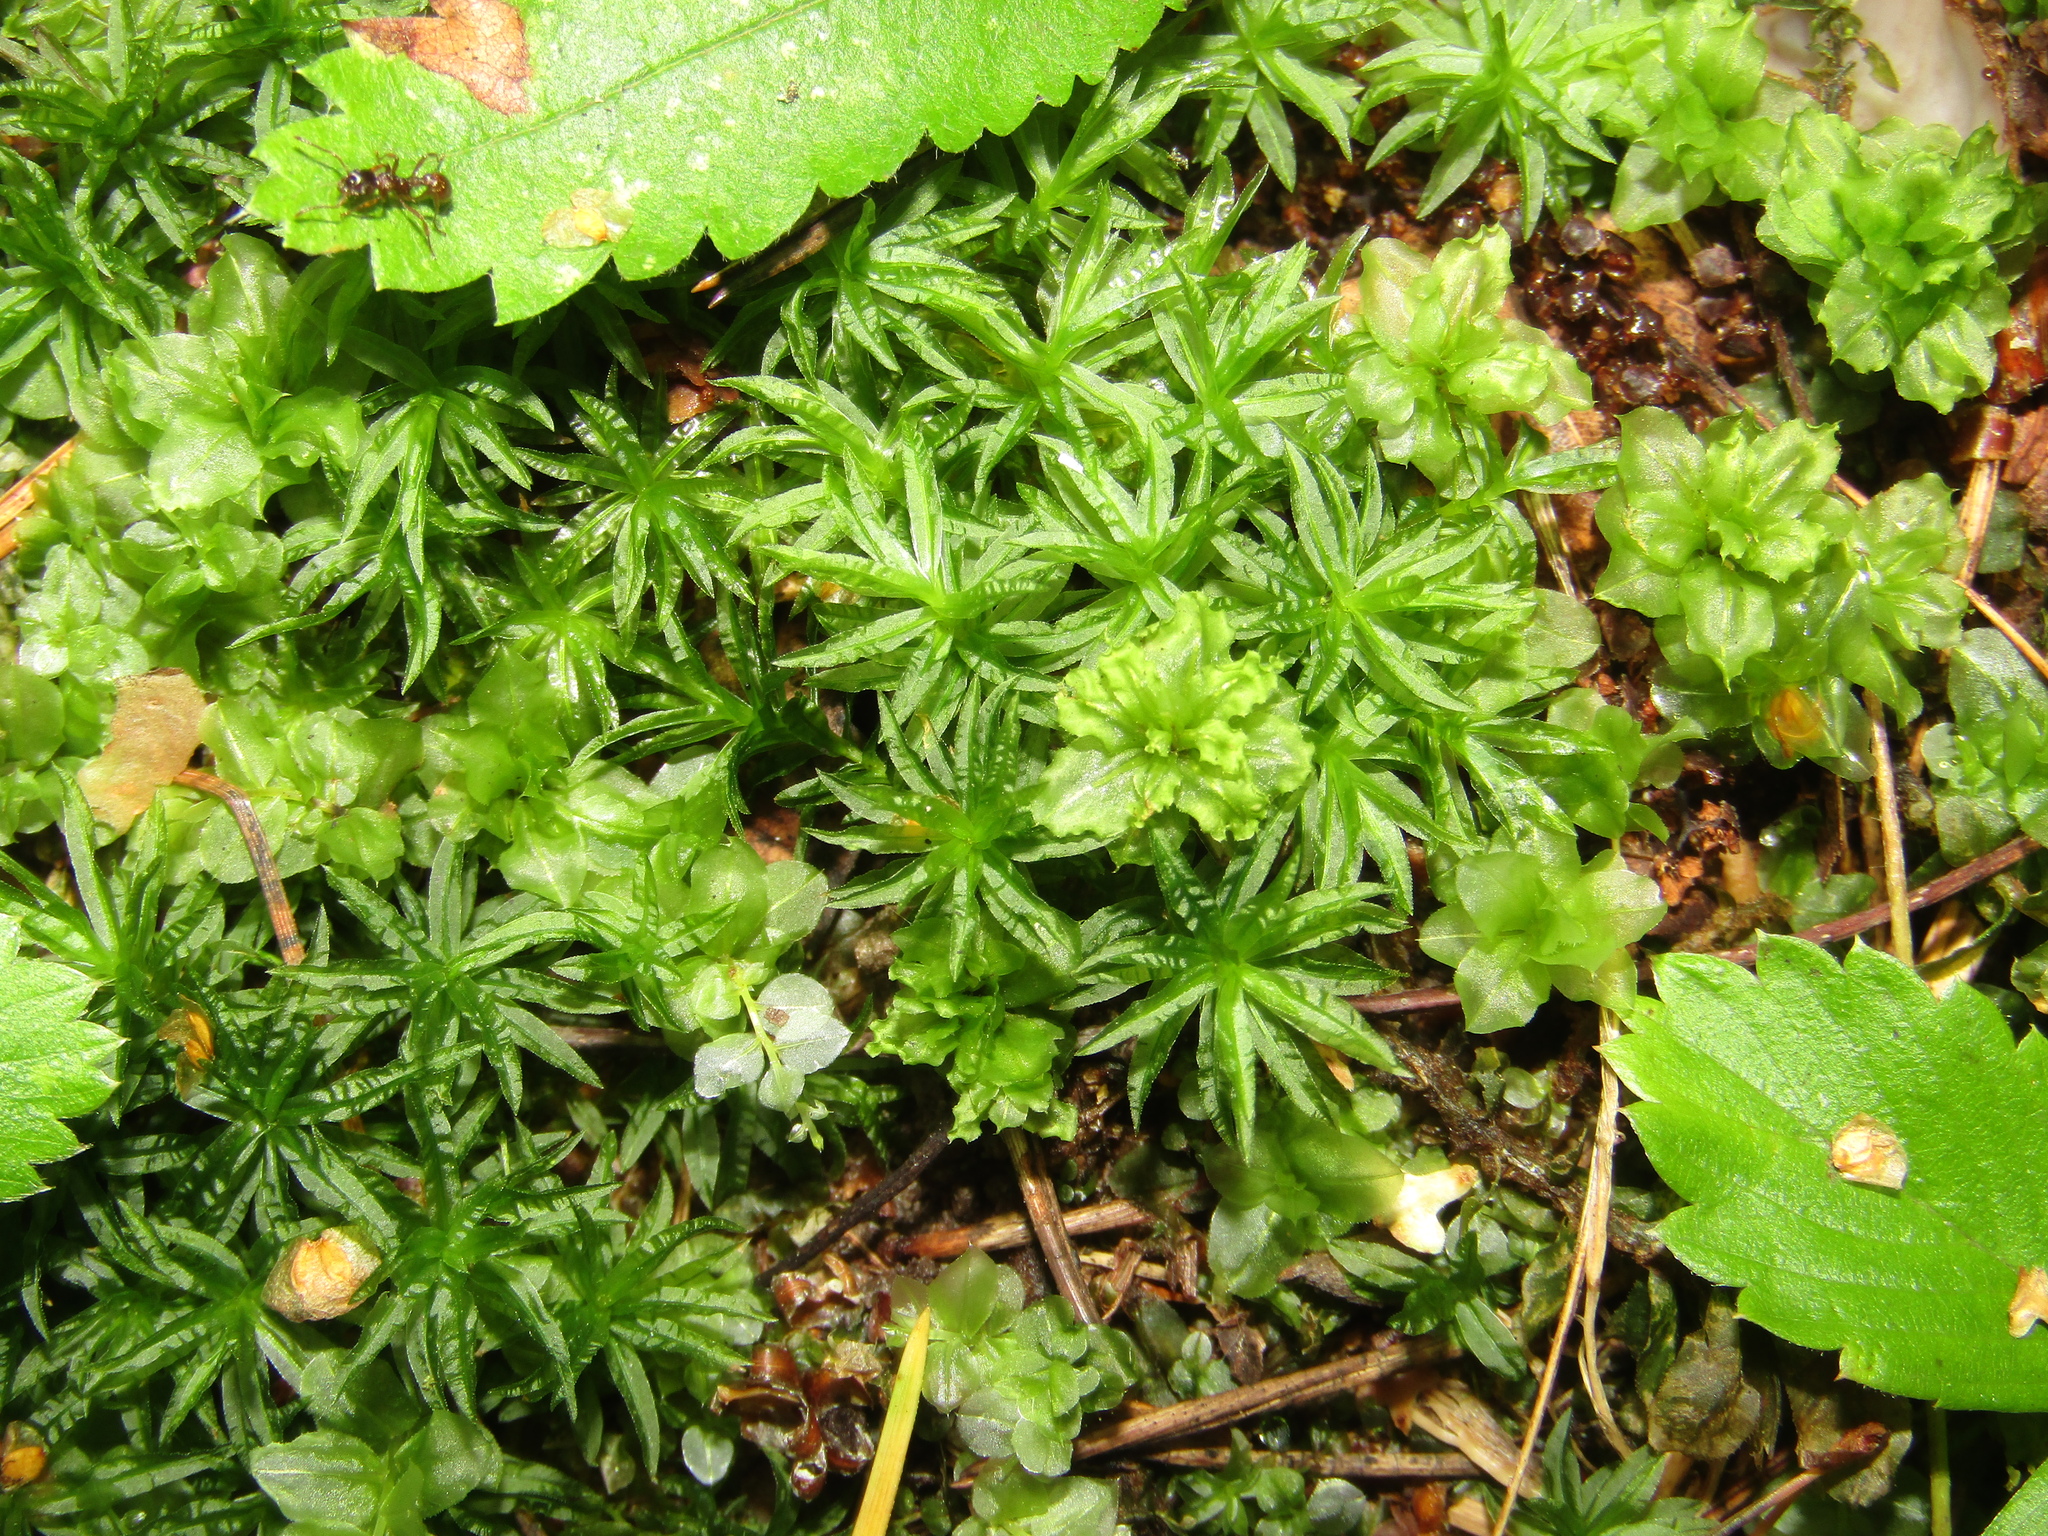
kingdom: Plantae
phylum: Bryophyta
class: Polytrichopsida
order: Polytrichales
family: Polytrichaceae
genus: Atrichum
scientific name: Atrichum undulatum
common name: Common smoothcap
